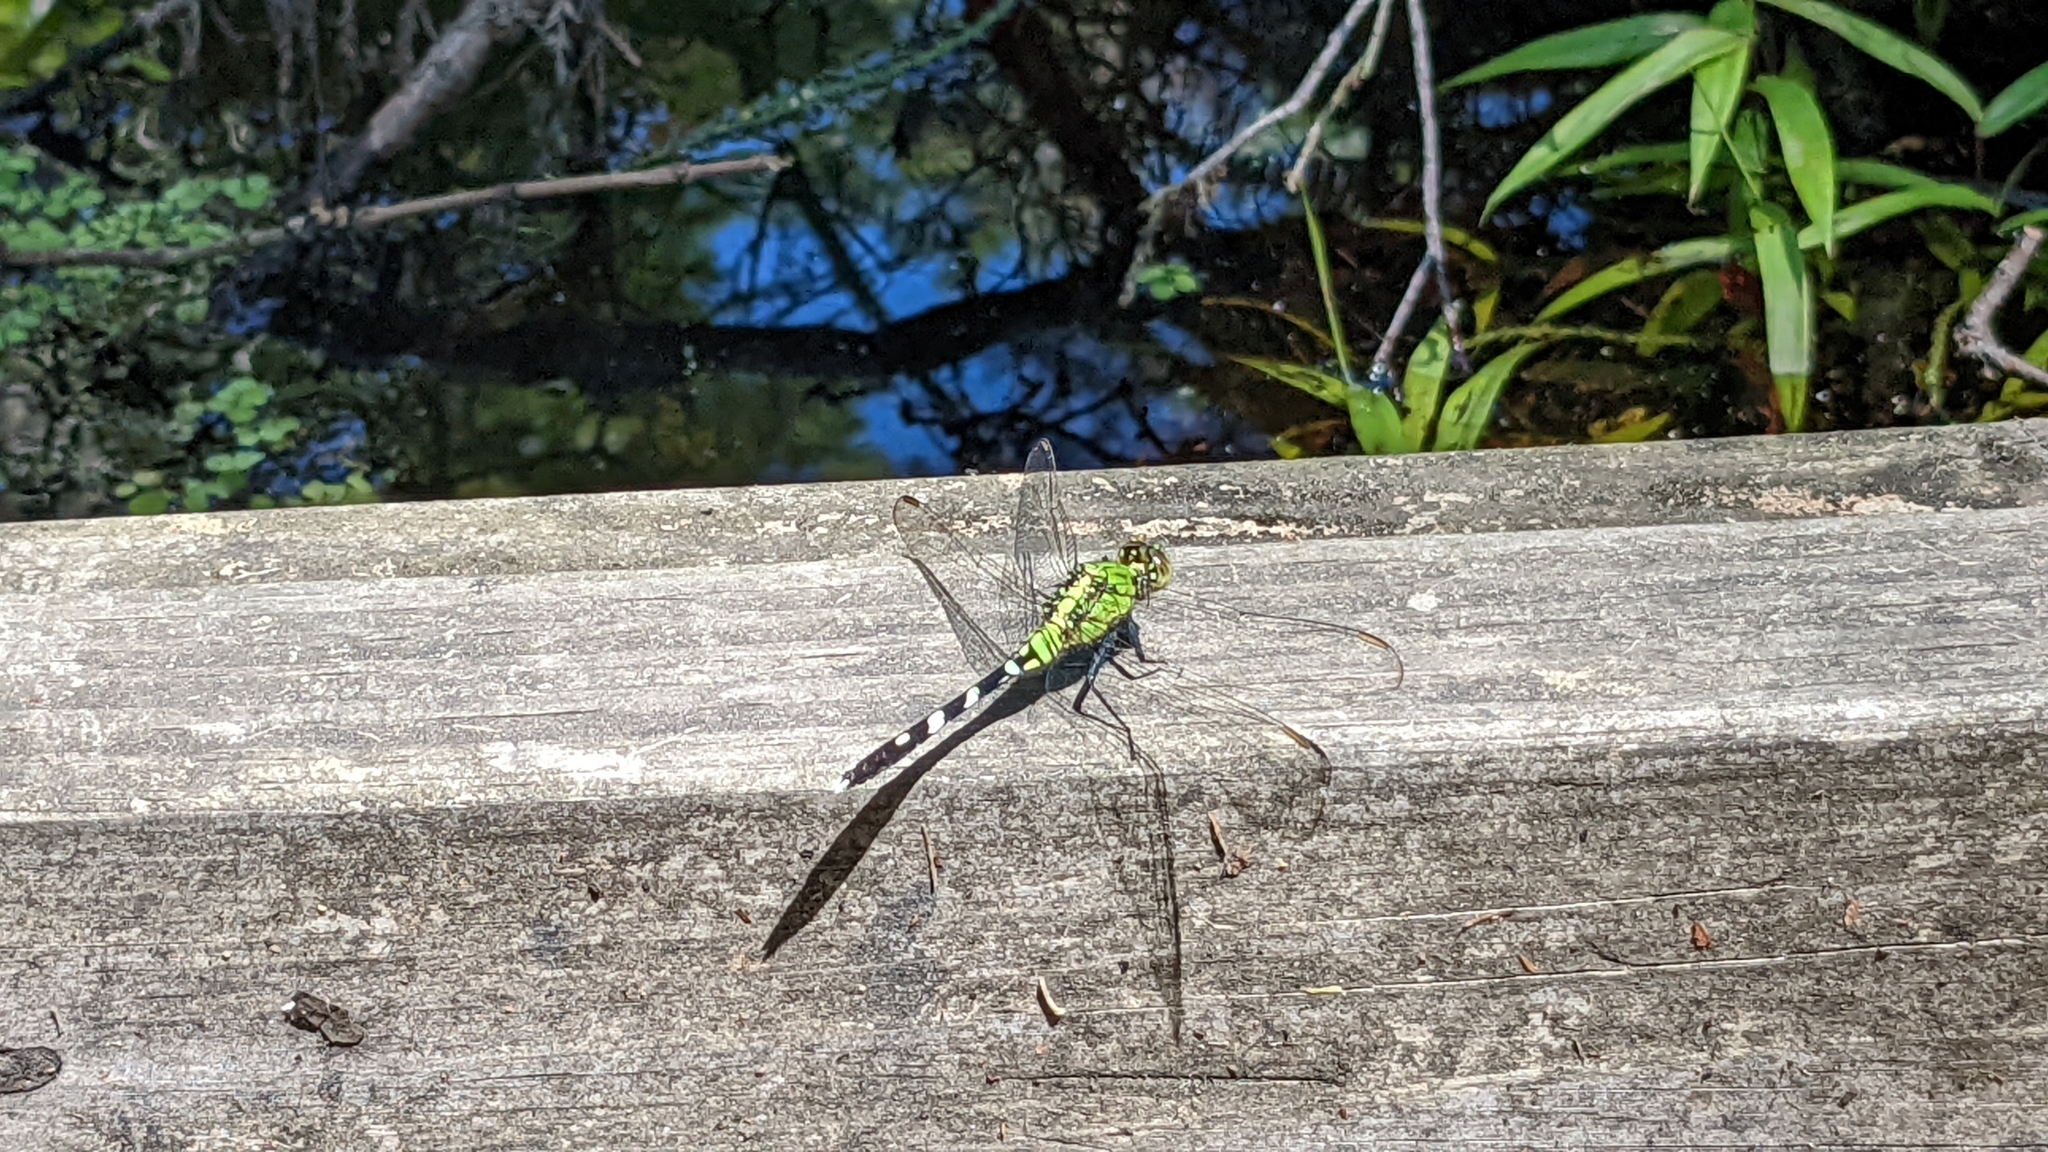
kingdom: Animalia
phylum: Arthropoda
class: Insecta
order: Odonata
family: Libellulidae
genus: Erythemis
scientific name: Erythemis simplicicollis
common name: Eastern pondhawk
